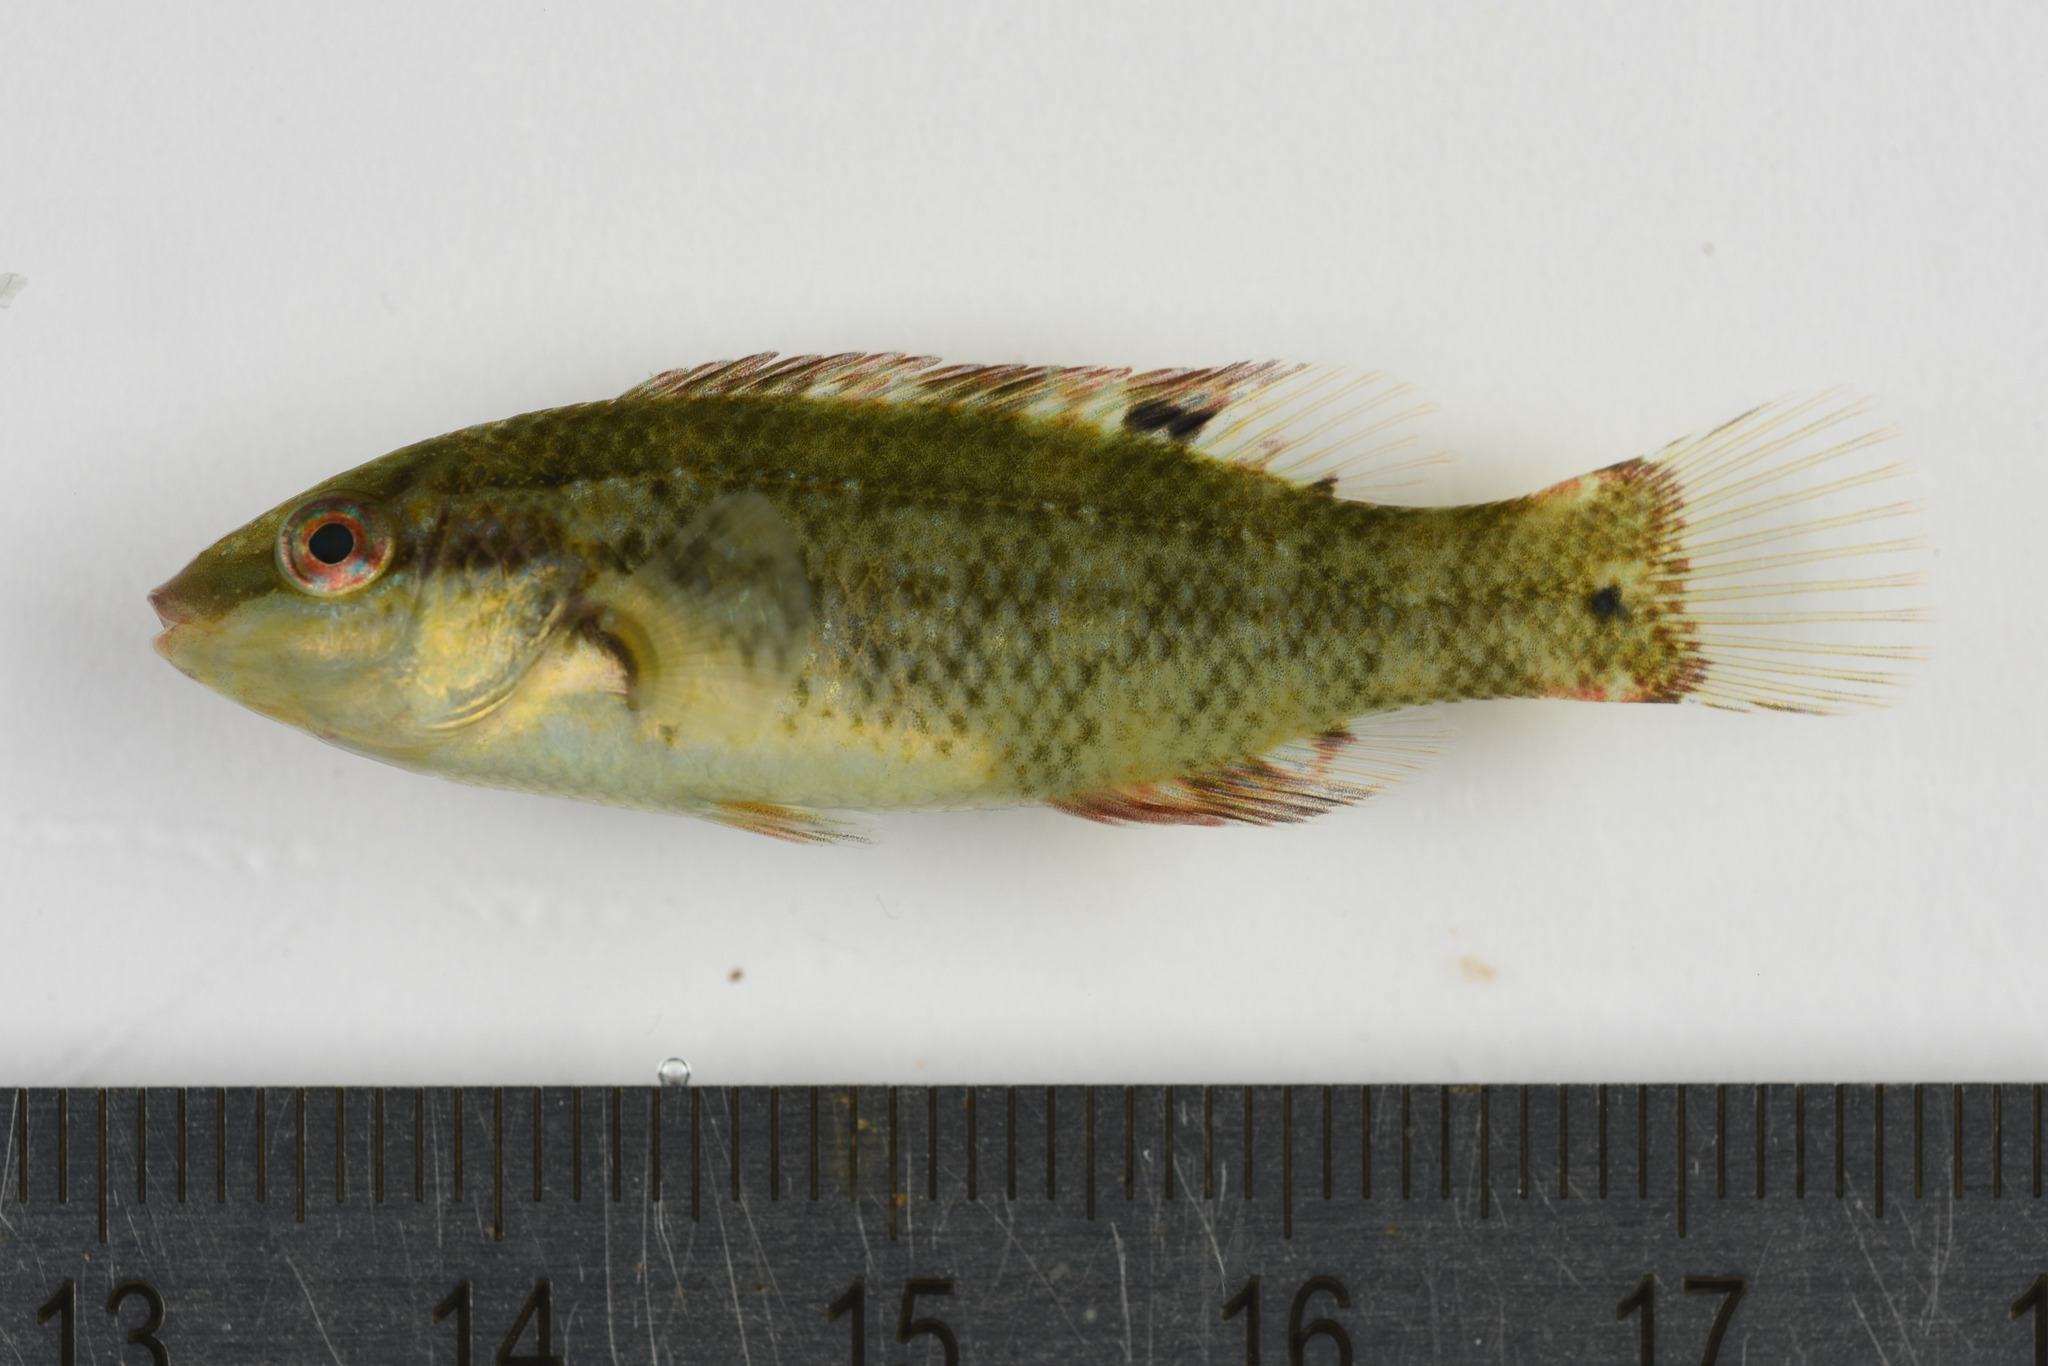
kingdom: Animalia
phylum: Chordata
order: Perciformes
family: Labridae
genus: Symphodus
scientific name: Symphodus bailloni
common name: Baillon's wrasse
